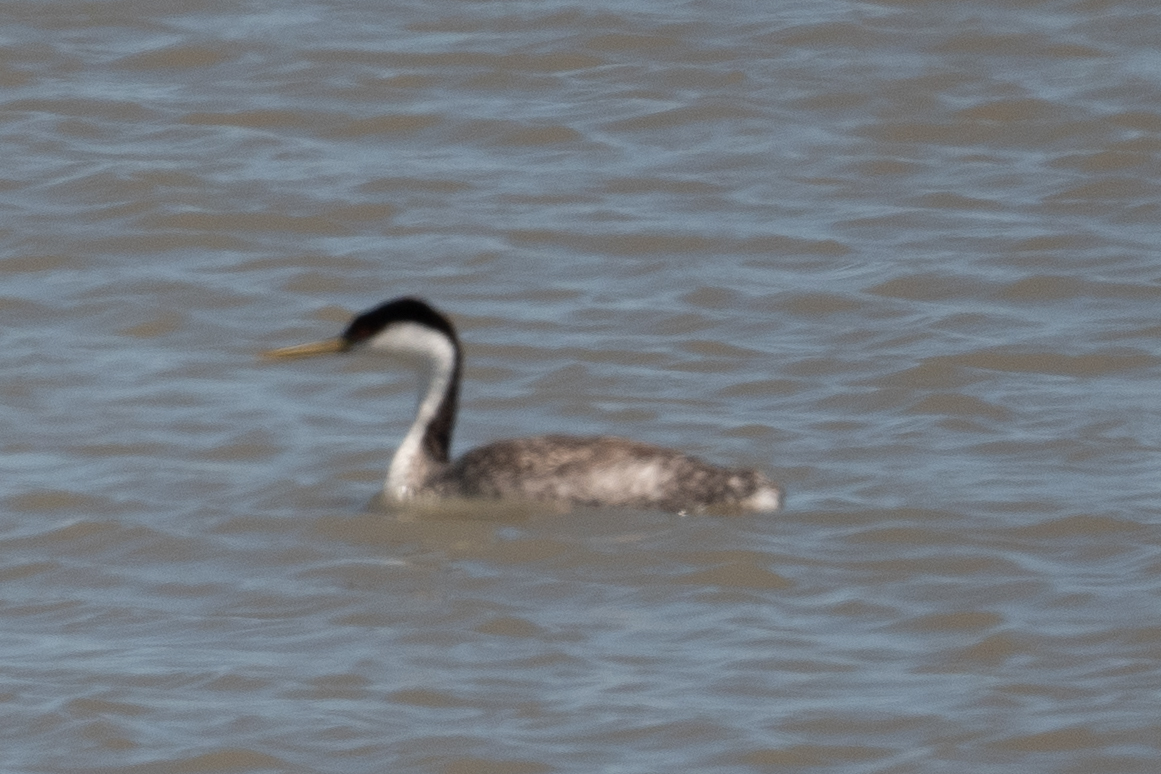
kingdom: Animalia
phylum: Chordata
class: Aves
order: Podicipediformes
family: Podicipedidae
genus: Aechmophorus
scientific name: Aechmophorus occidentalis
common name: Western grebe
